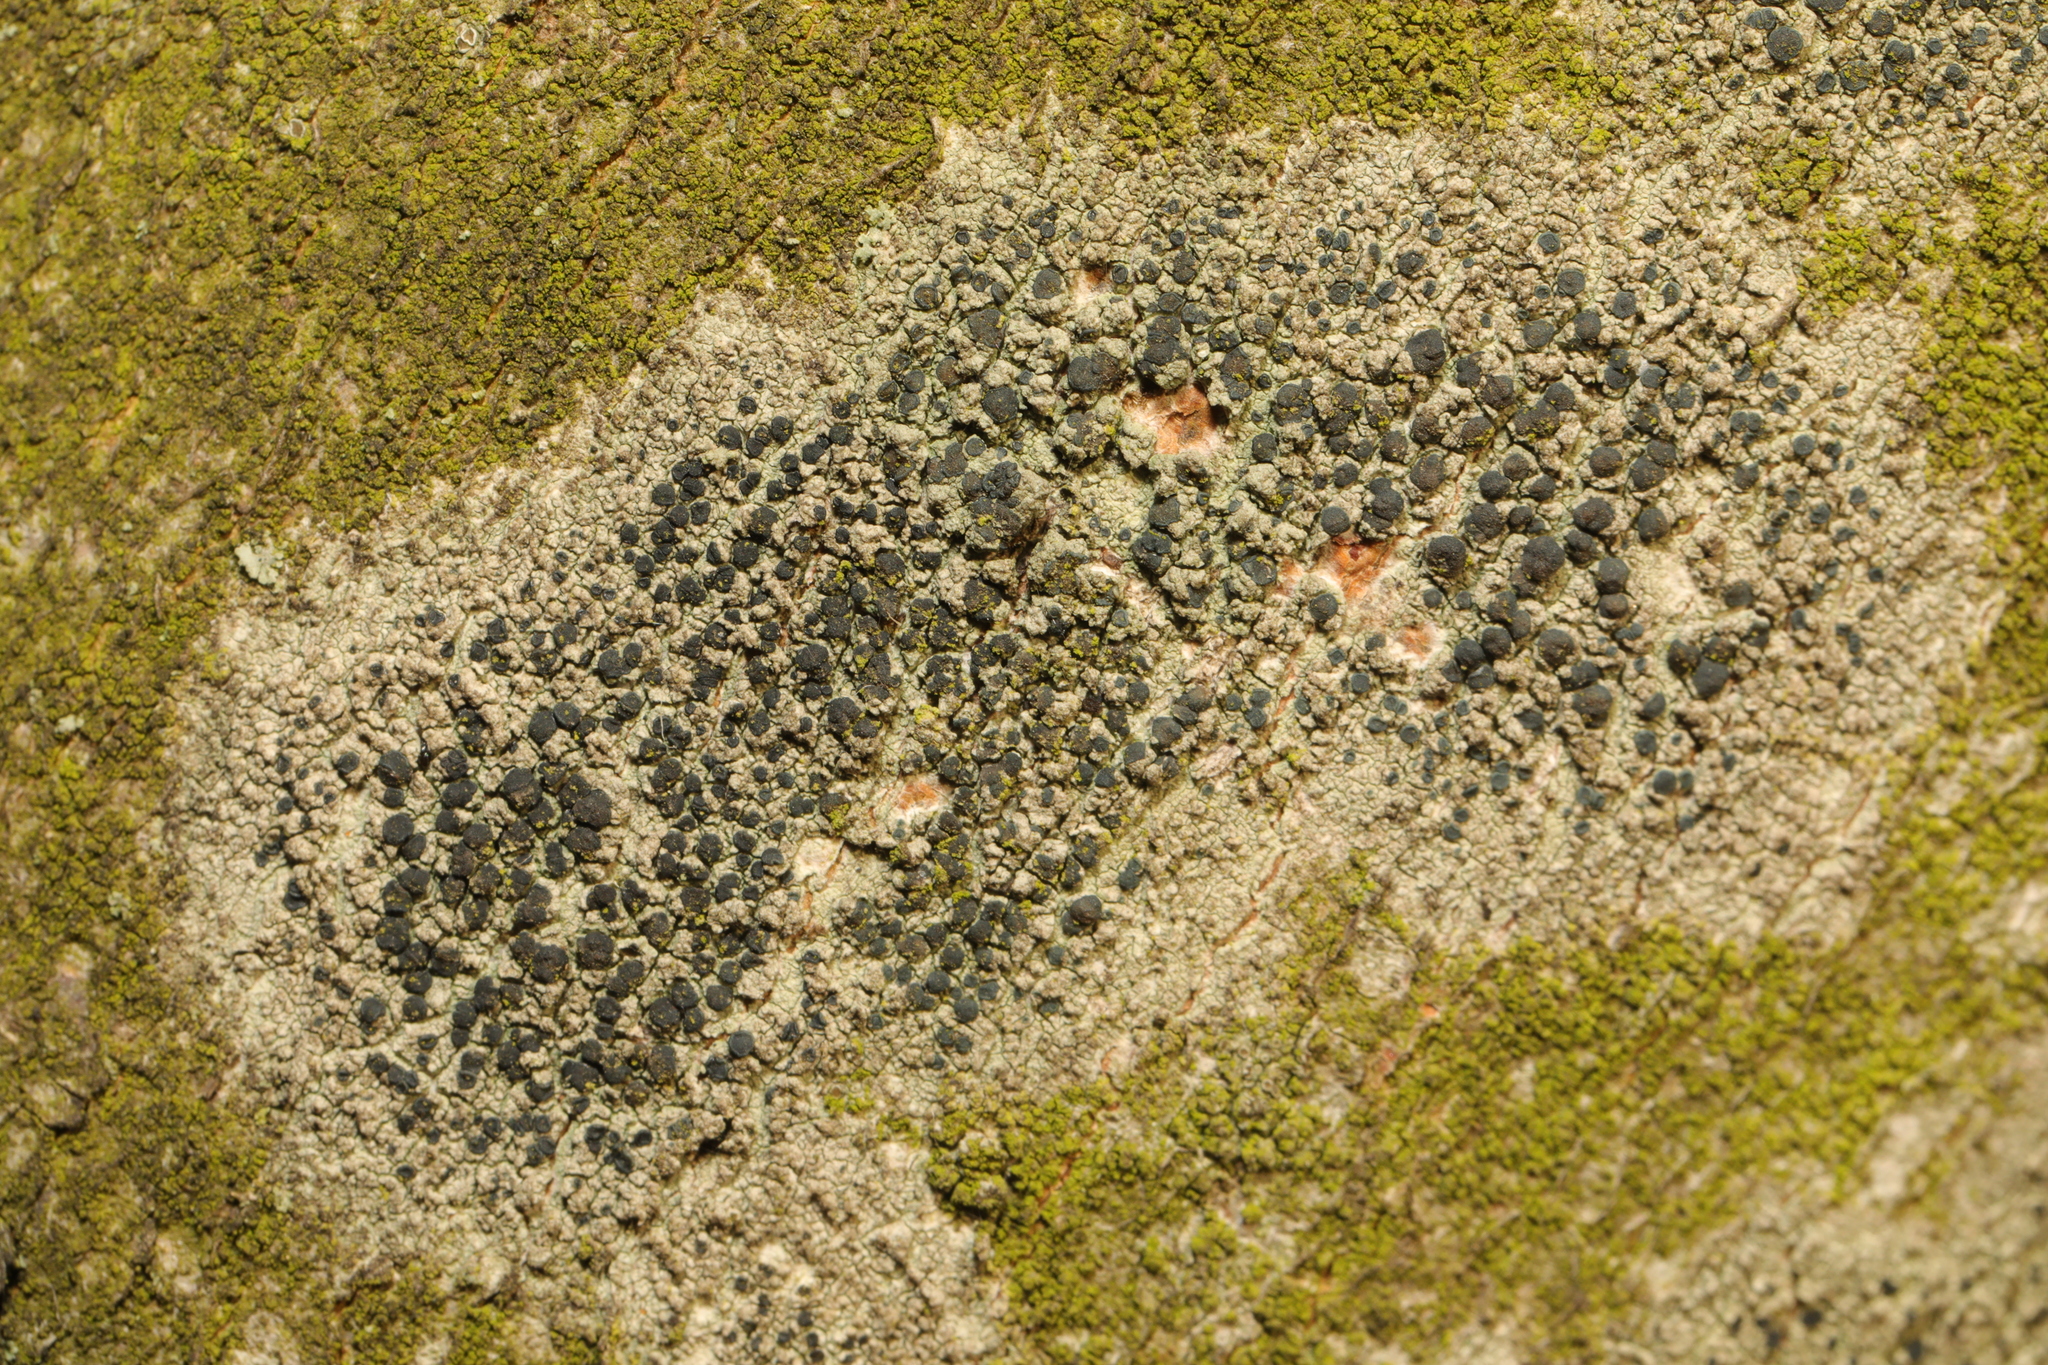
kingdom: Fungi
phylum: Ascomycota
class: Lecanoromycetes
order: Lecanorales
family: Lecanoraceae
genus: Lecidella
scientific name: Lecidella elaeochroma
